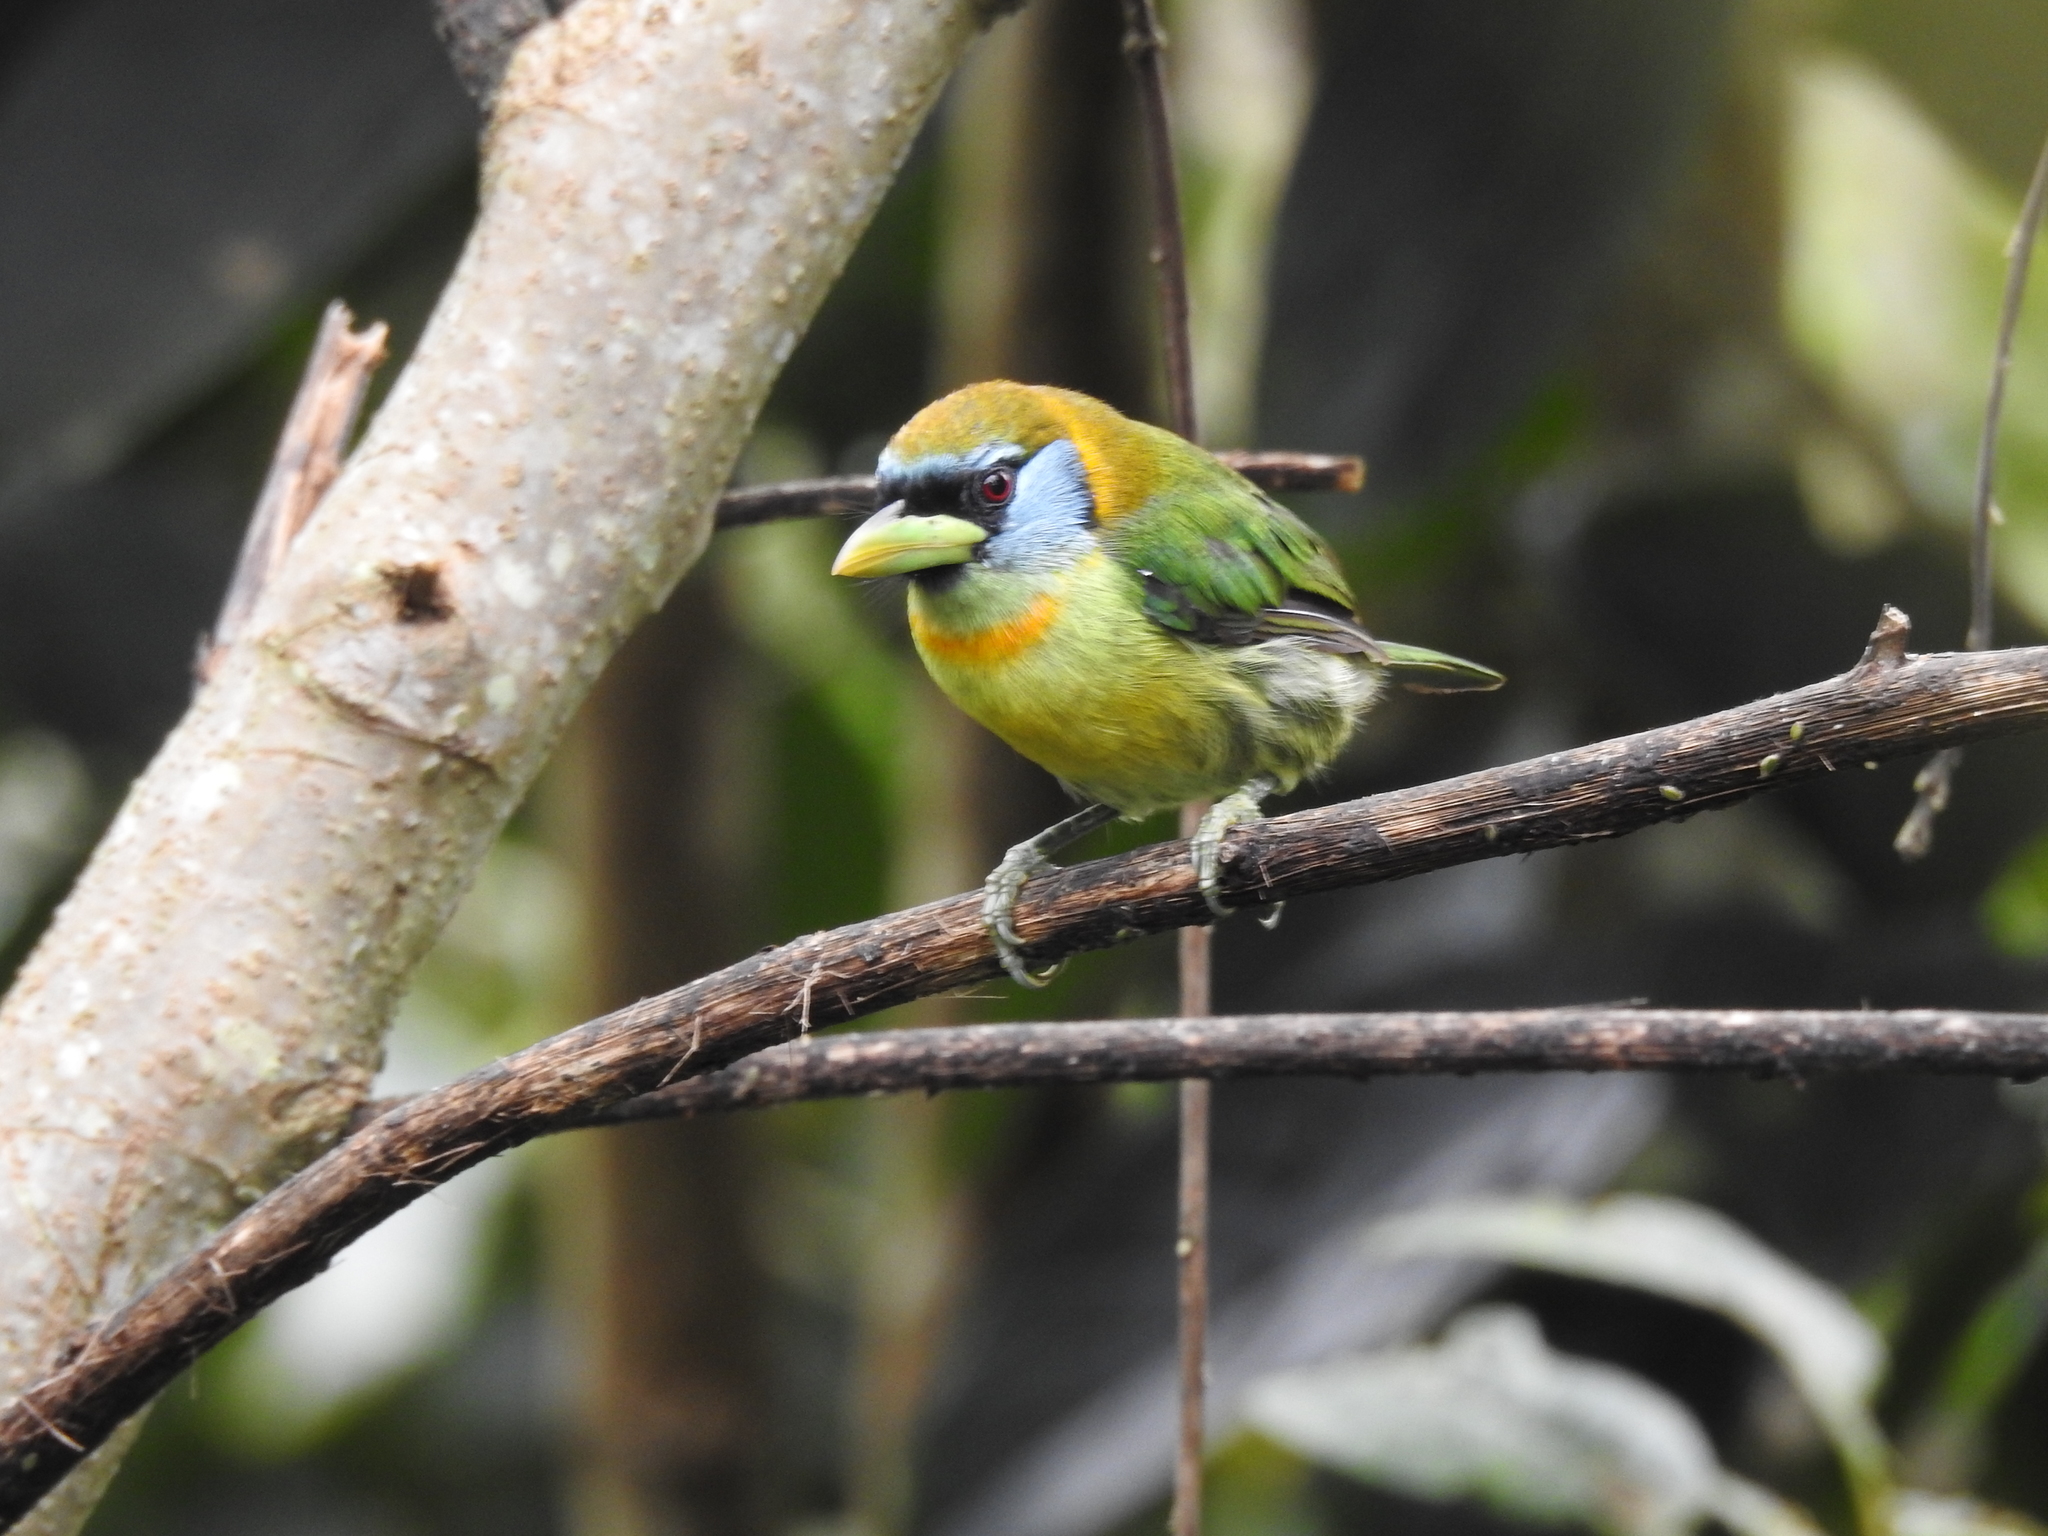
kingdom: Animalia
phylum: Chordata
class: Aves
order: Piciformes
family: Capitonidae
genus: Eubucco
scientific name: Eubucco bourcierii
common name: Red-headed barbet
